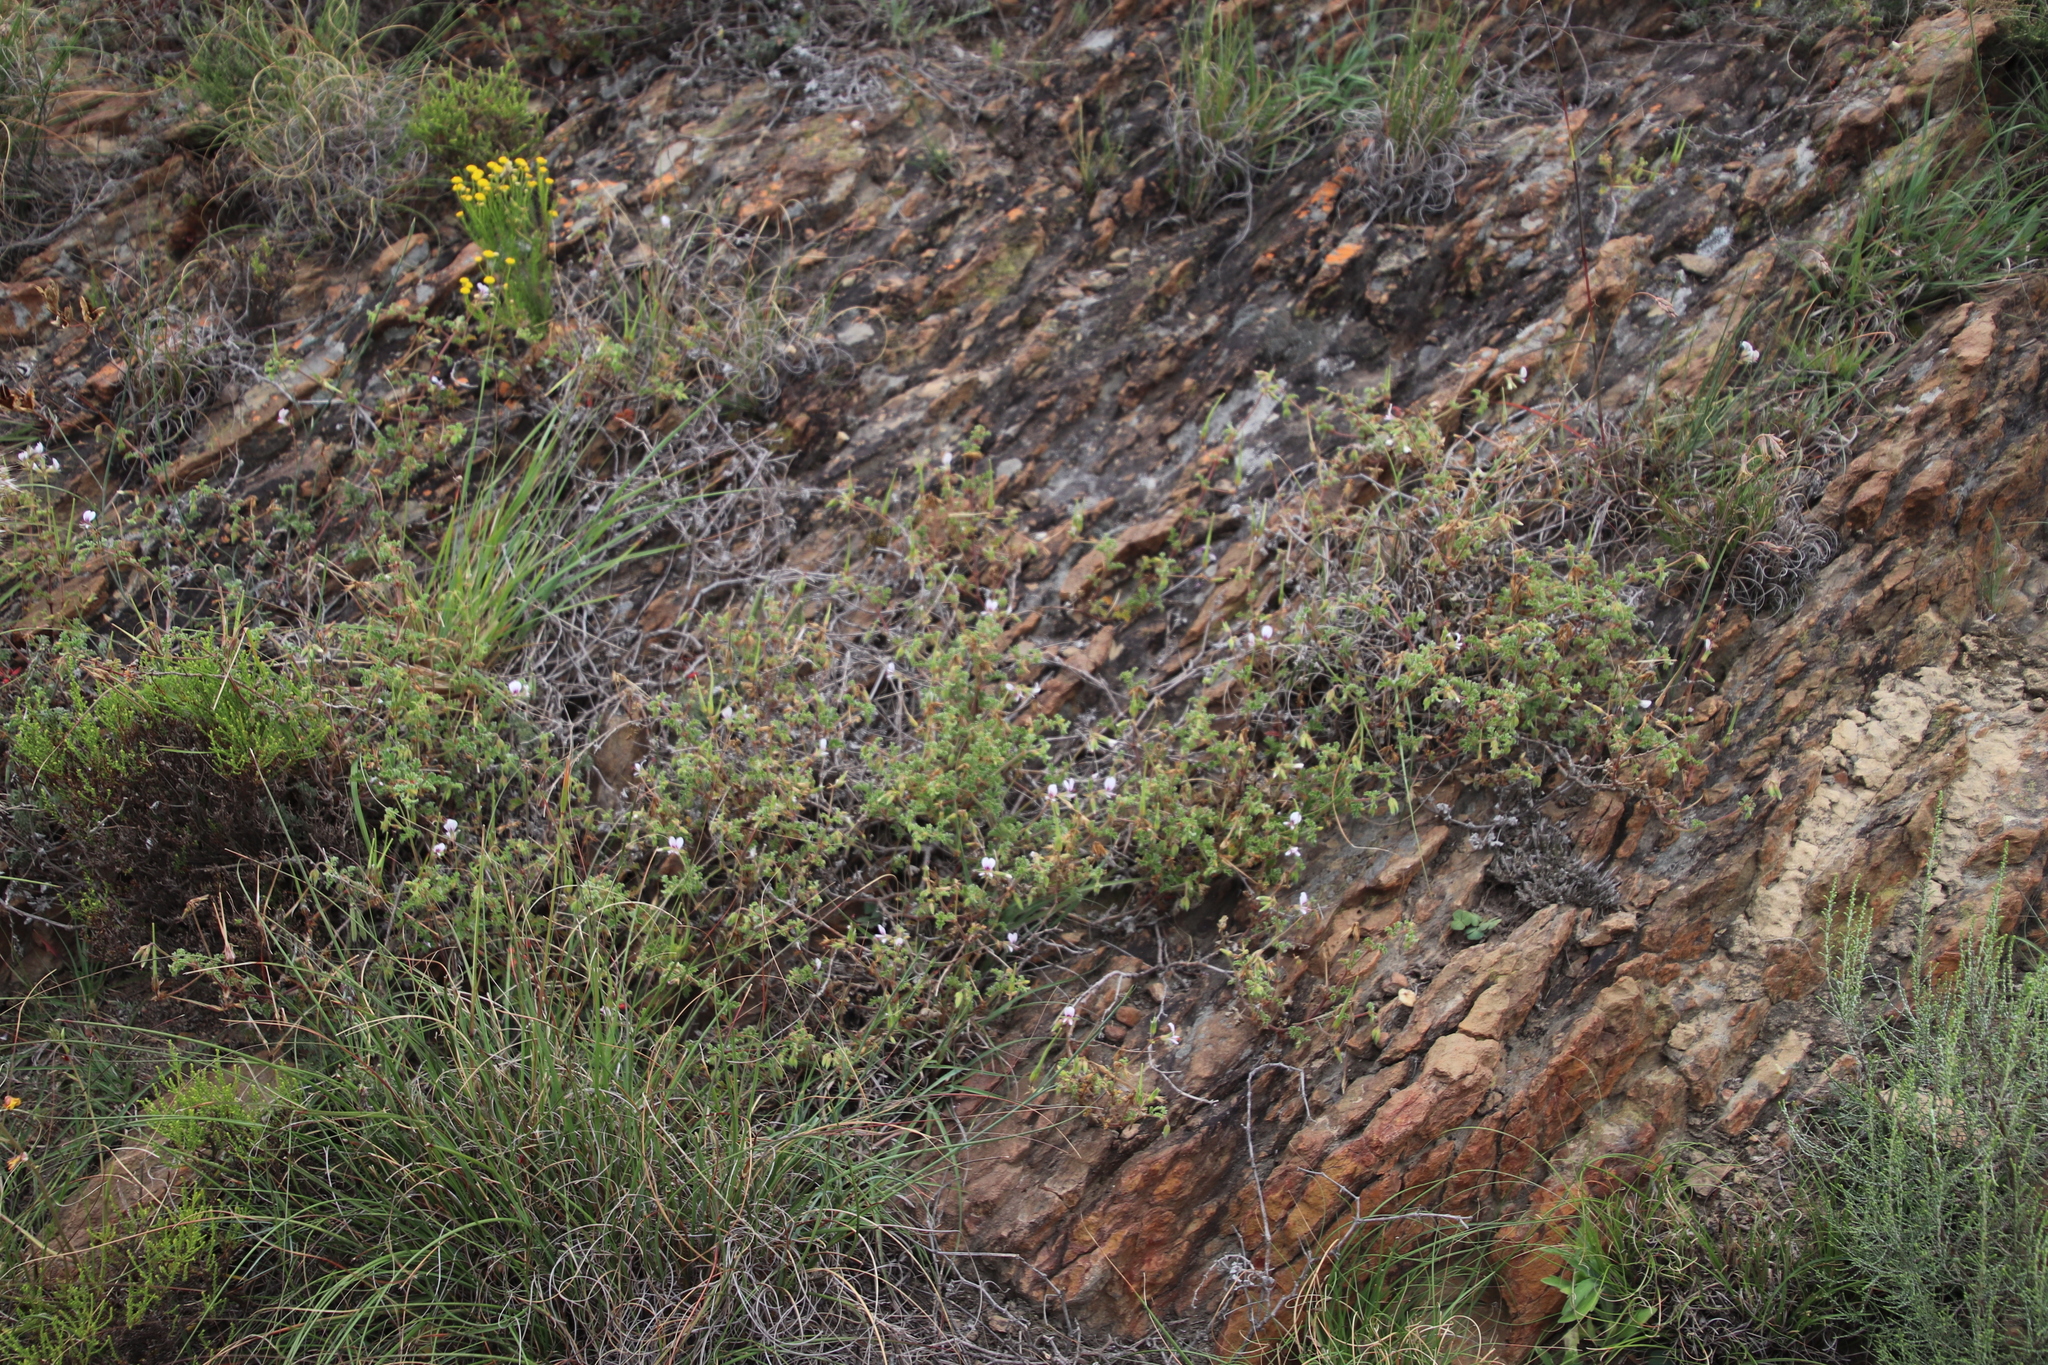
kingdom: Plantae
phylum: Tracheophyta
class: Magnoliopsida
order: Geraniales
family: Geraniaceae
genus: Pelargonium
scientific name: Pelargonium candicans
